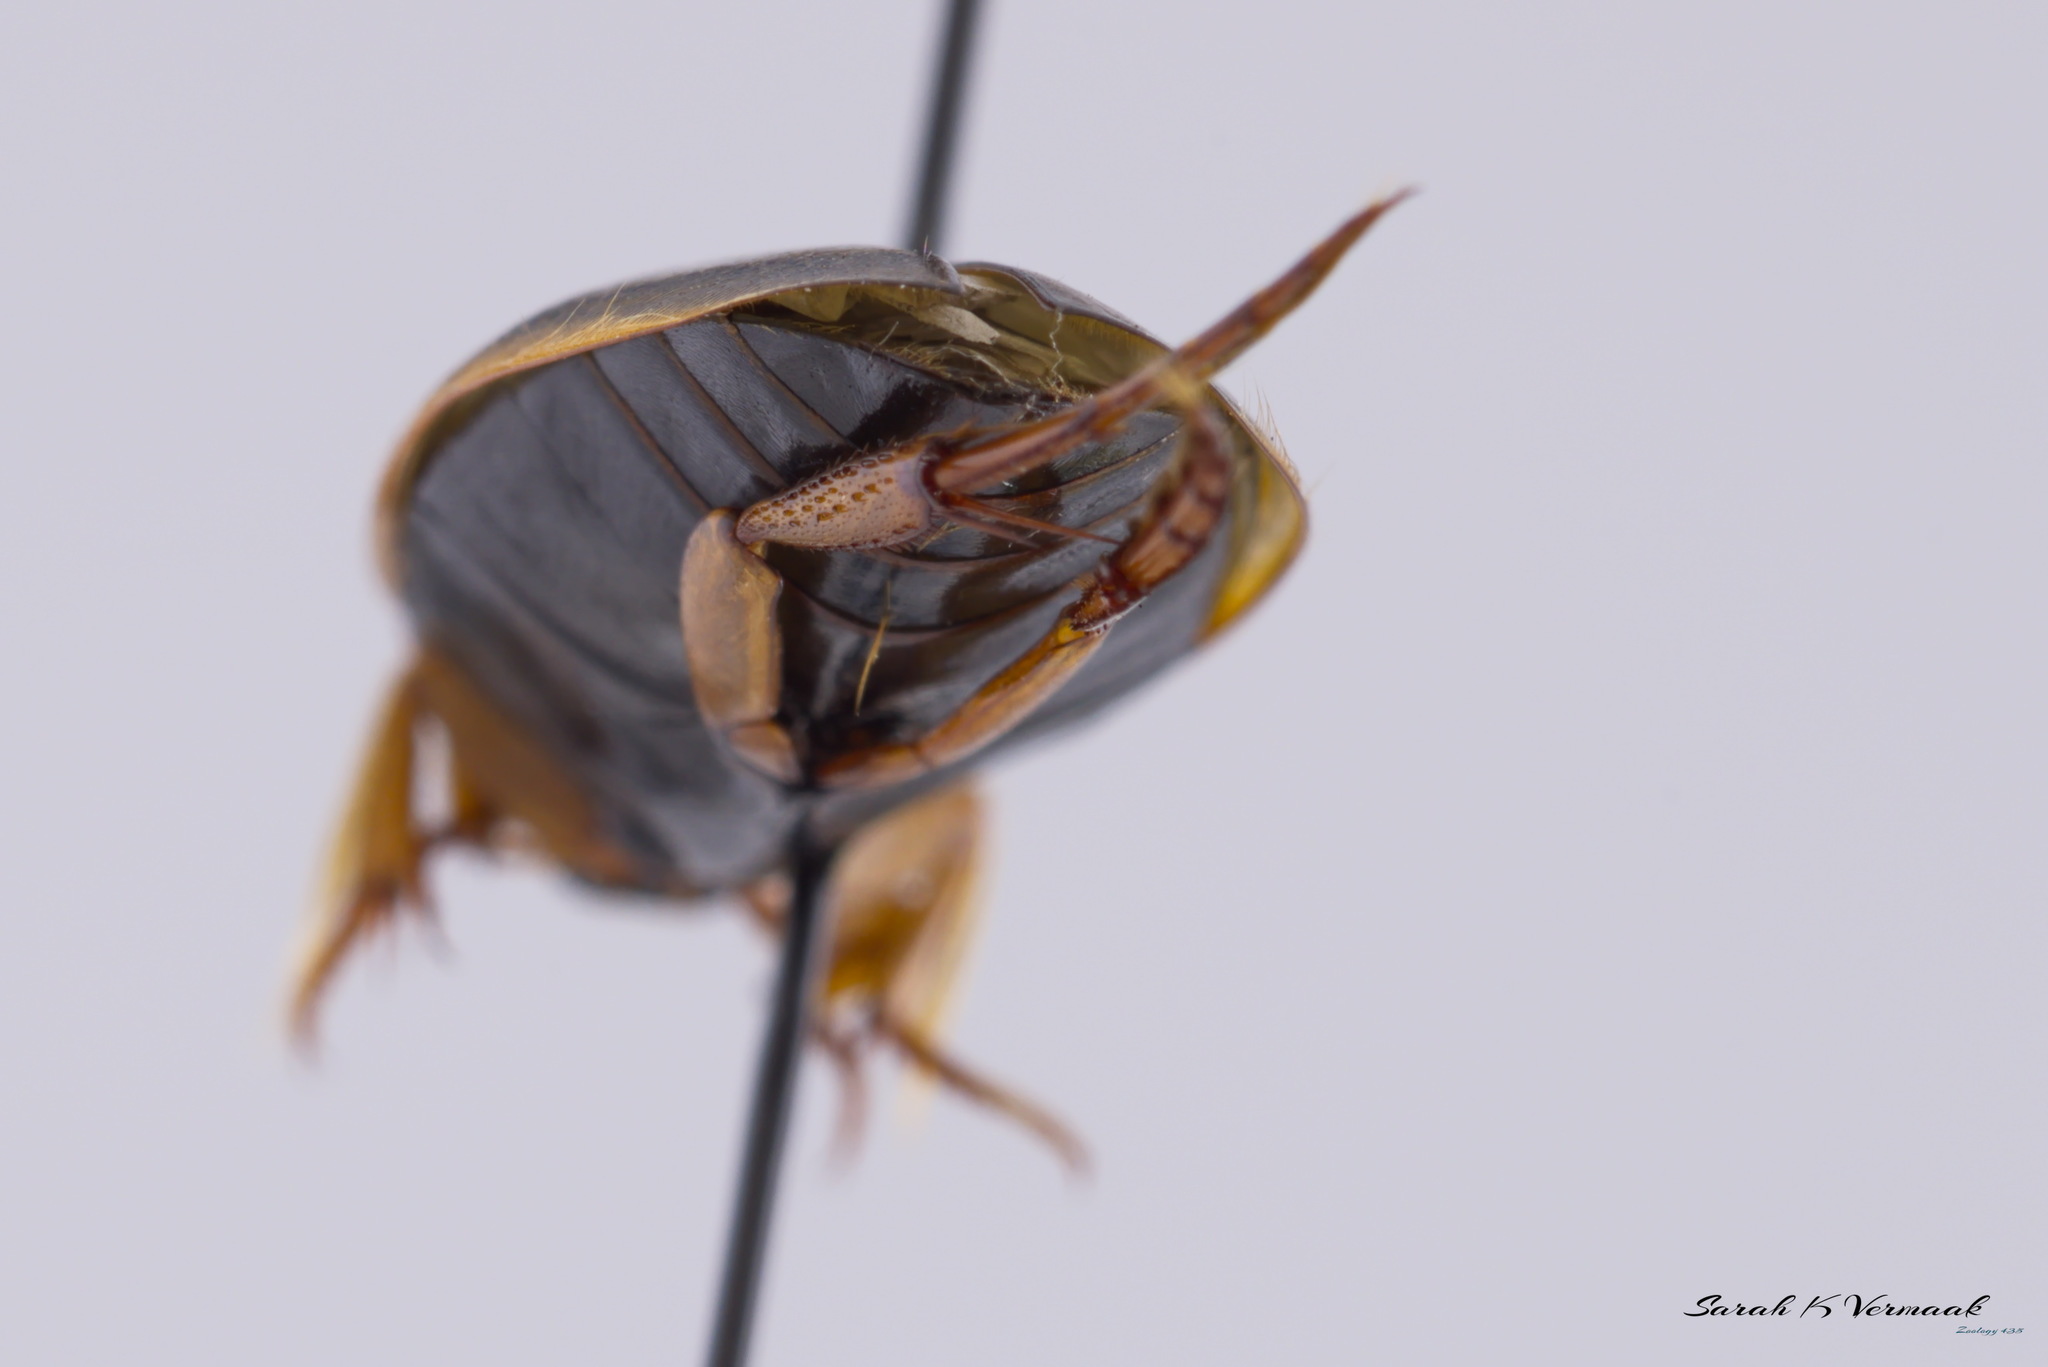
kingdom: Animalia
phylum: Arthropoda
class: Insecta
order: Coleoptera
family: Dytiscidae
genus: Colymbetes
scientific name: Colymbetes
